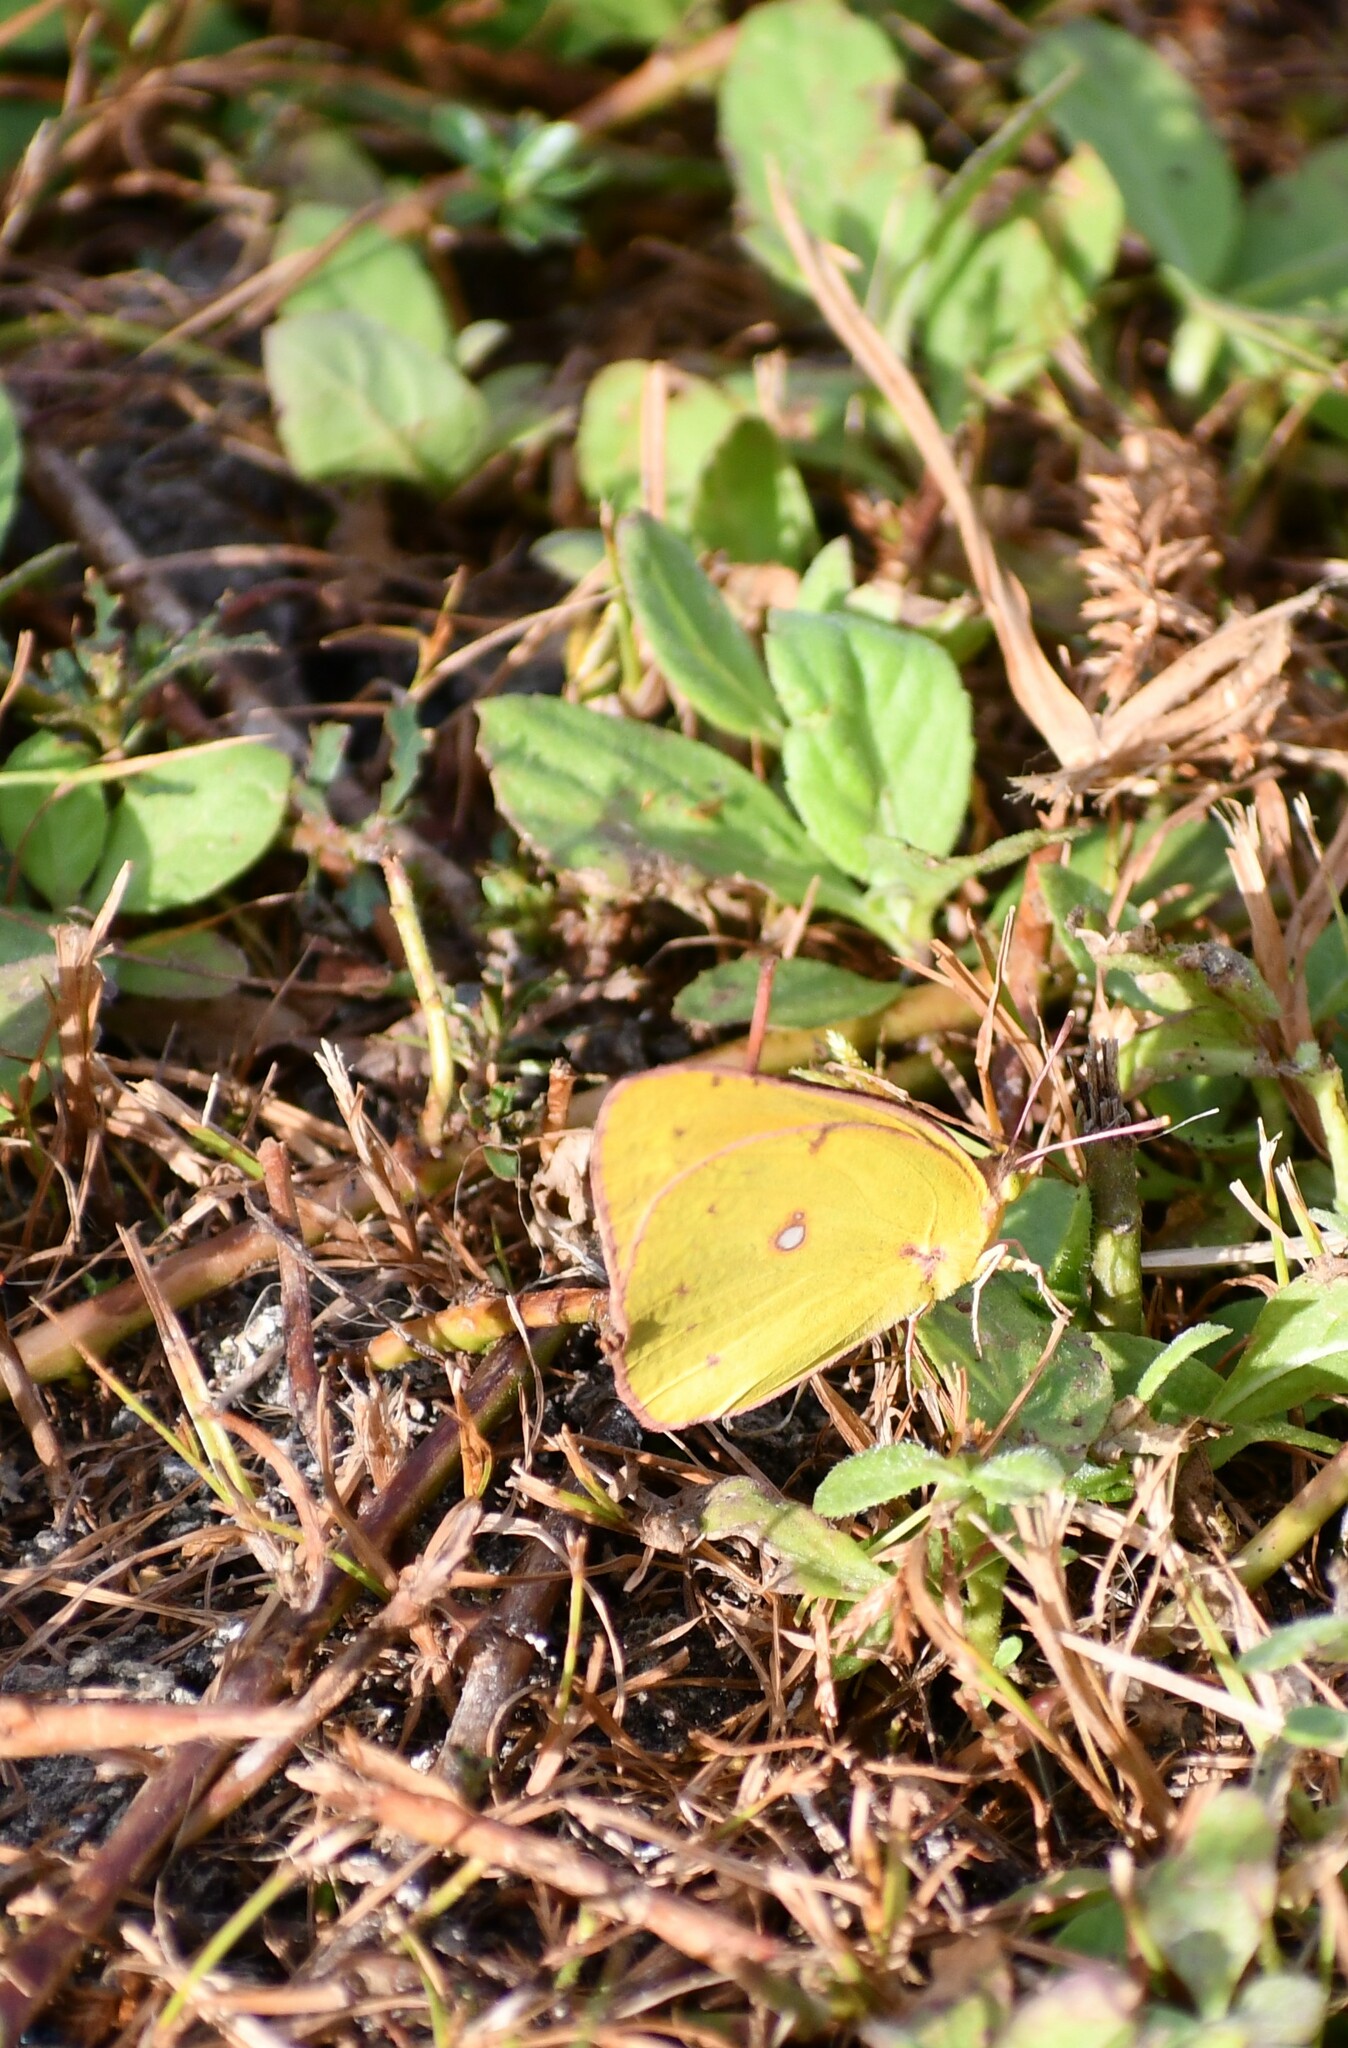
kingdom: Animalia
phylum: Arthropoda
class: Insecta
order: Lepidoptera
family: Pieridae
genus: Colias
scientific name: Colias eurytheme
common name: Alfalfa butterfly
